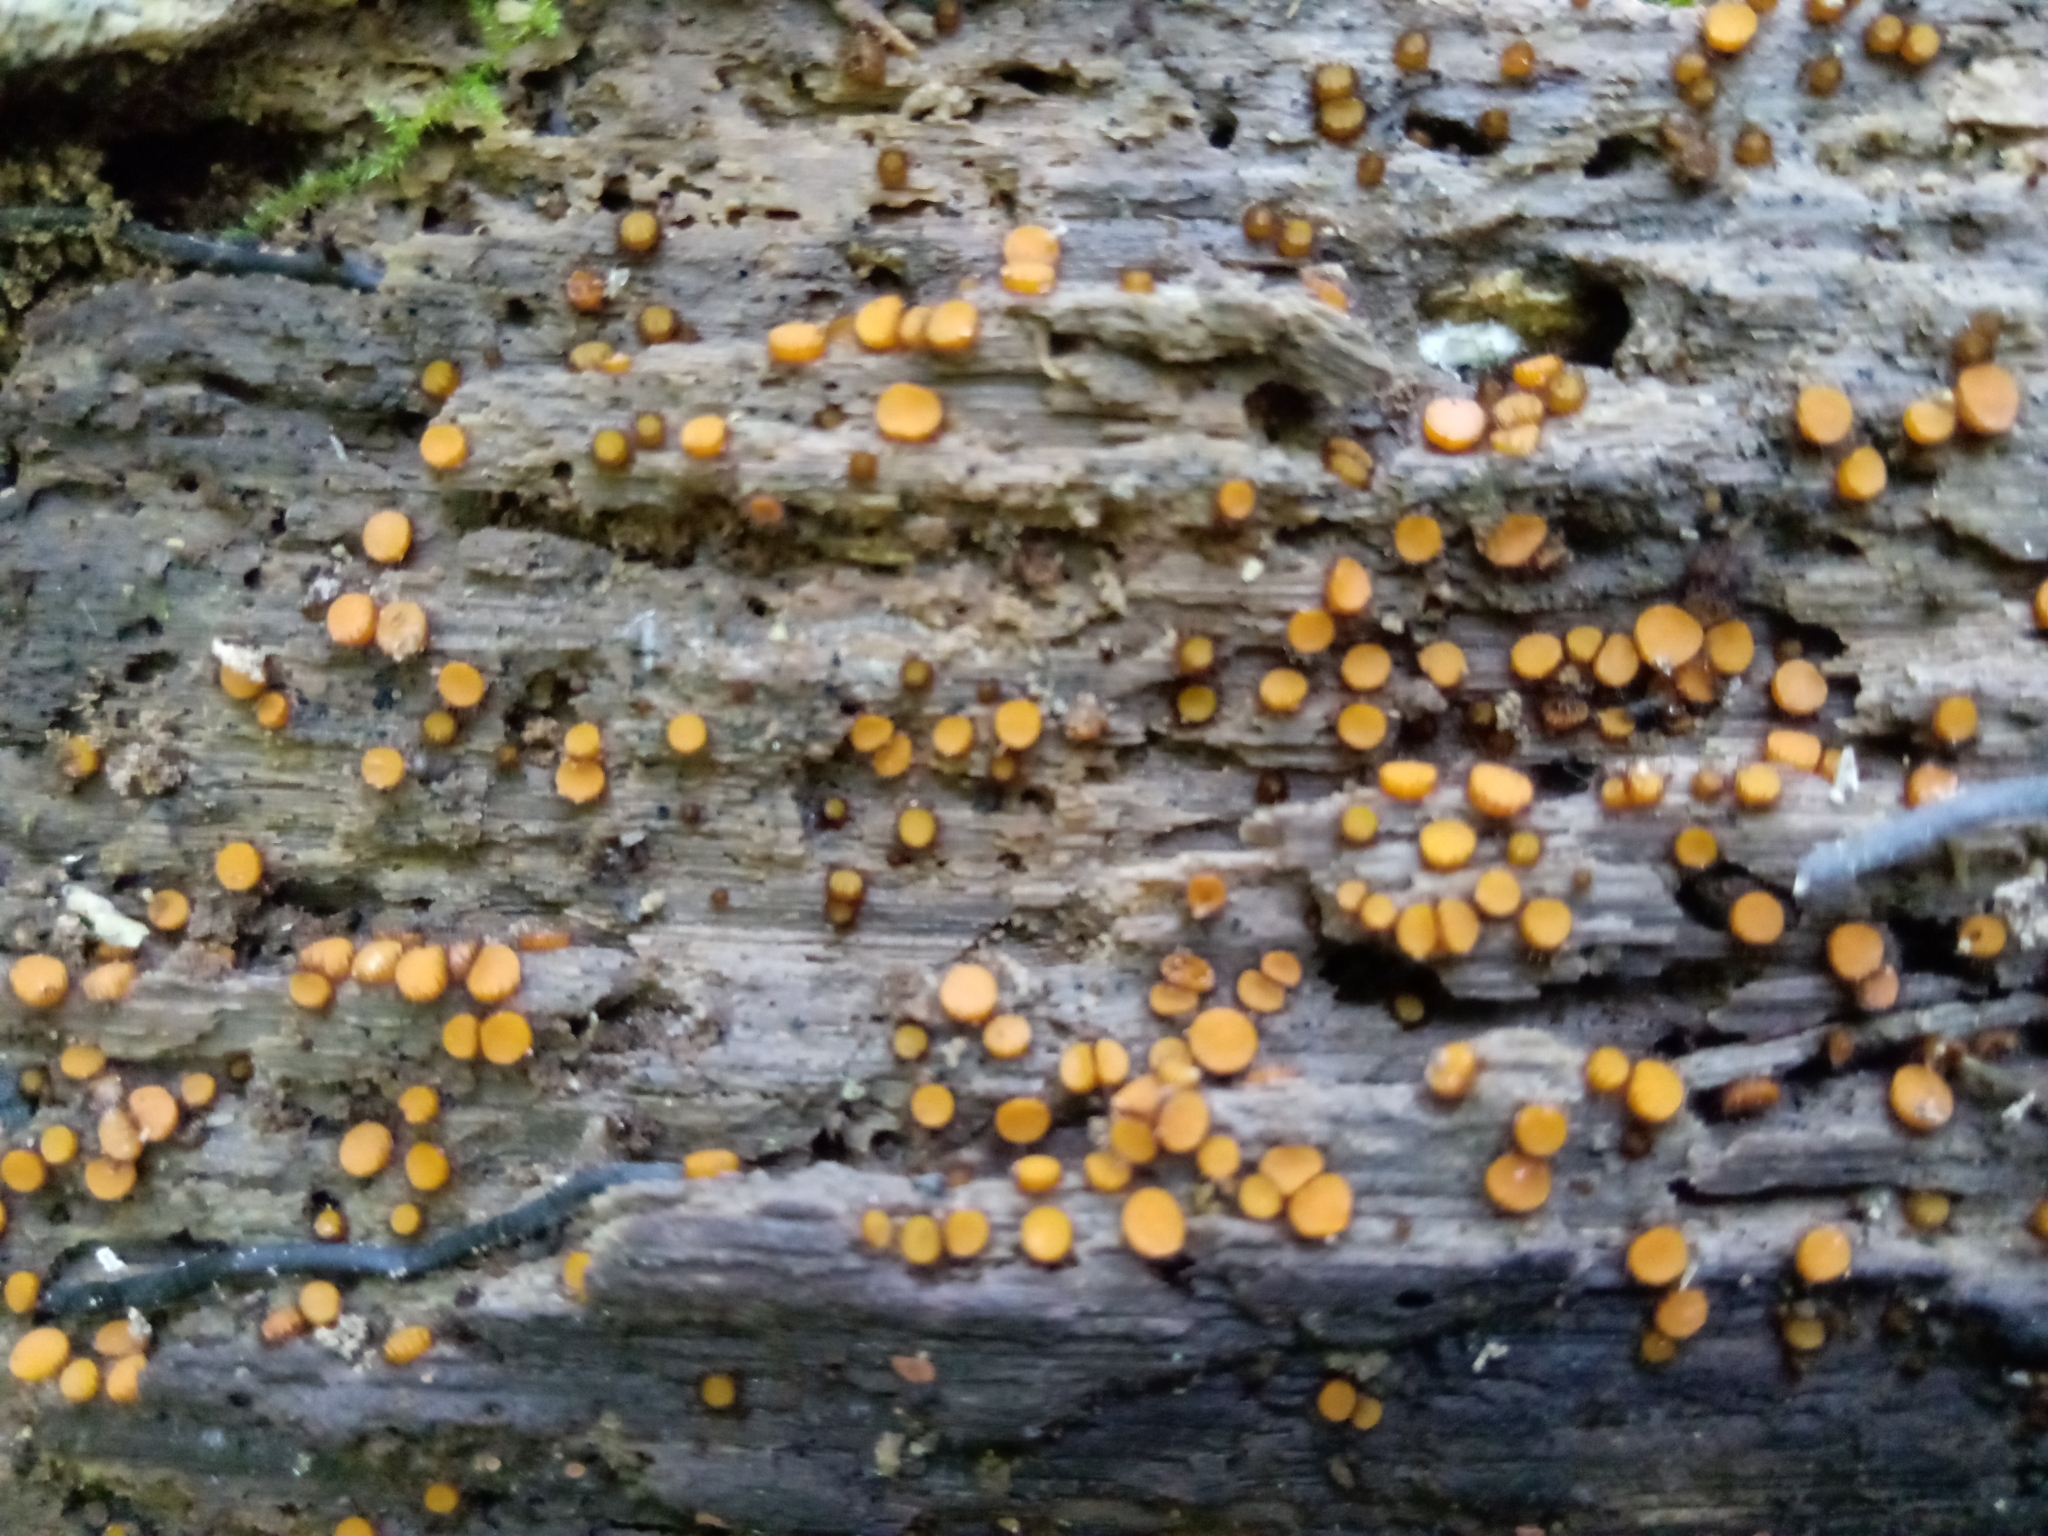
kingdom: Fungi
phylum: Ascomycota
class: Pezizomycetes
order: Pezizales
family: Pyronemataceae
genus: Scutellinia
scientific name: Scutellinia setosa
